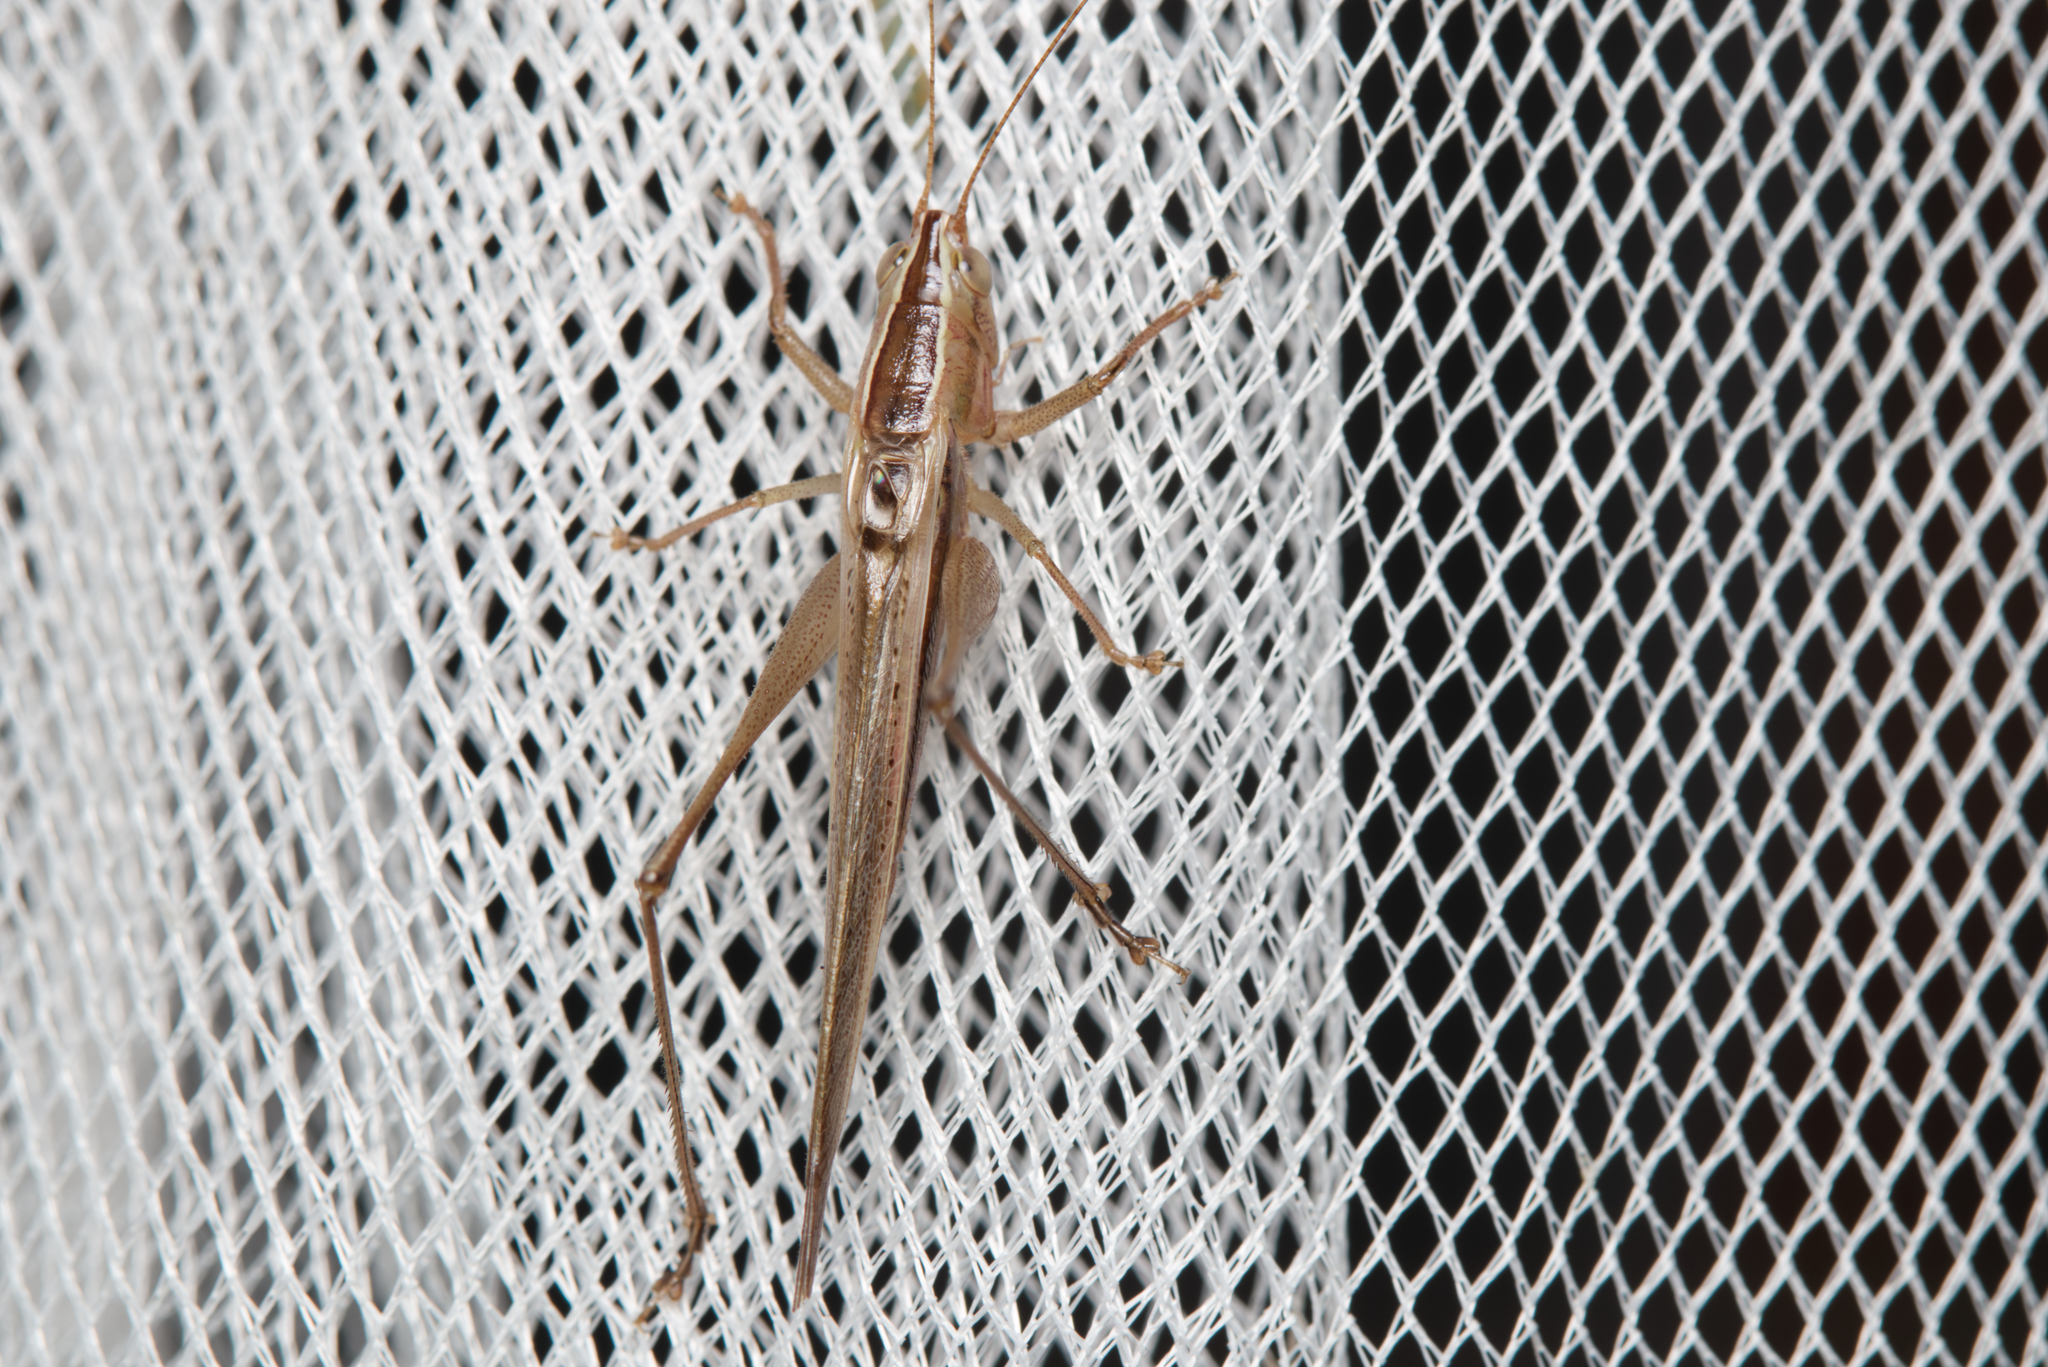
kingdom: Animalia
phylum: Arthropoda
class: Insecta
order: Orthoptera
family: Tettigoniidae
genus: Conocephalus
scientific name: Conocephalus upoluensis
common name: Upolu meadow katydid
